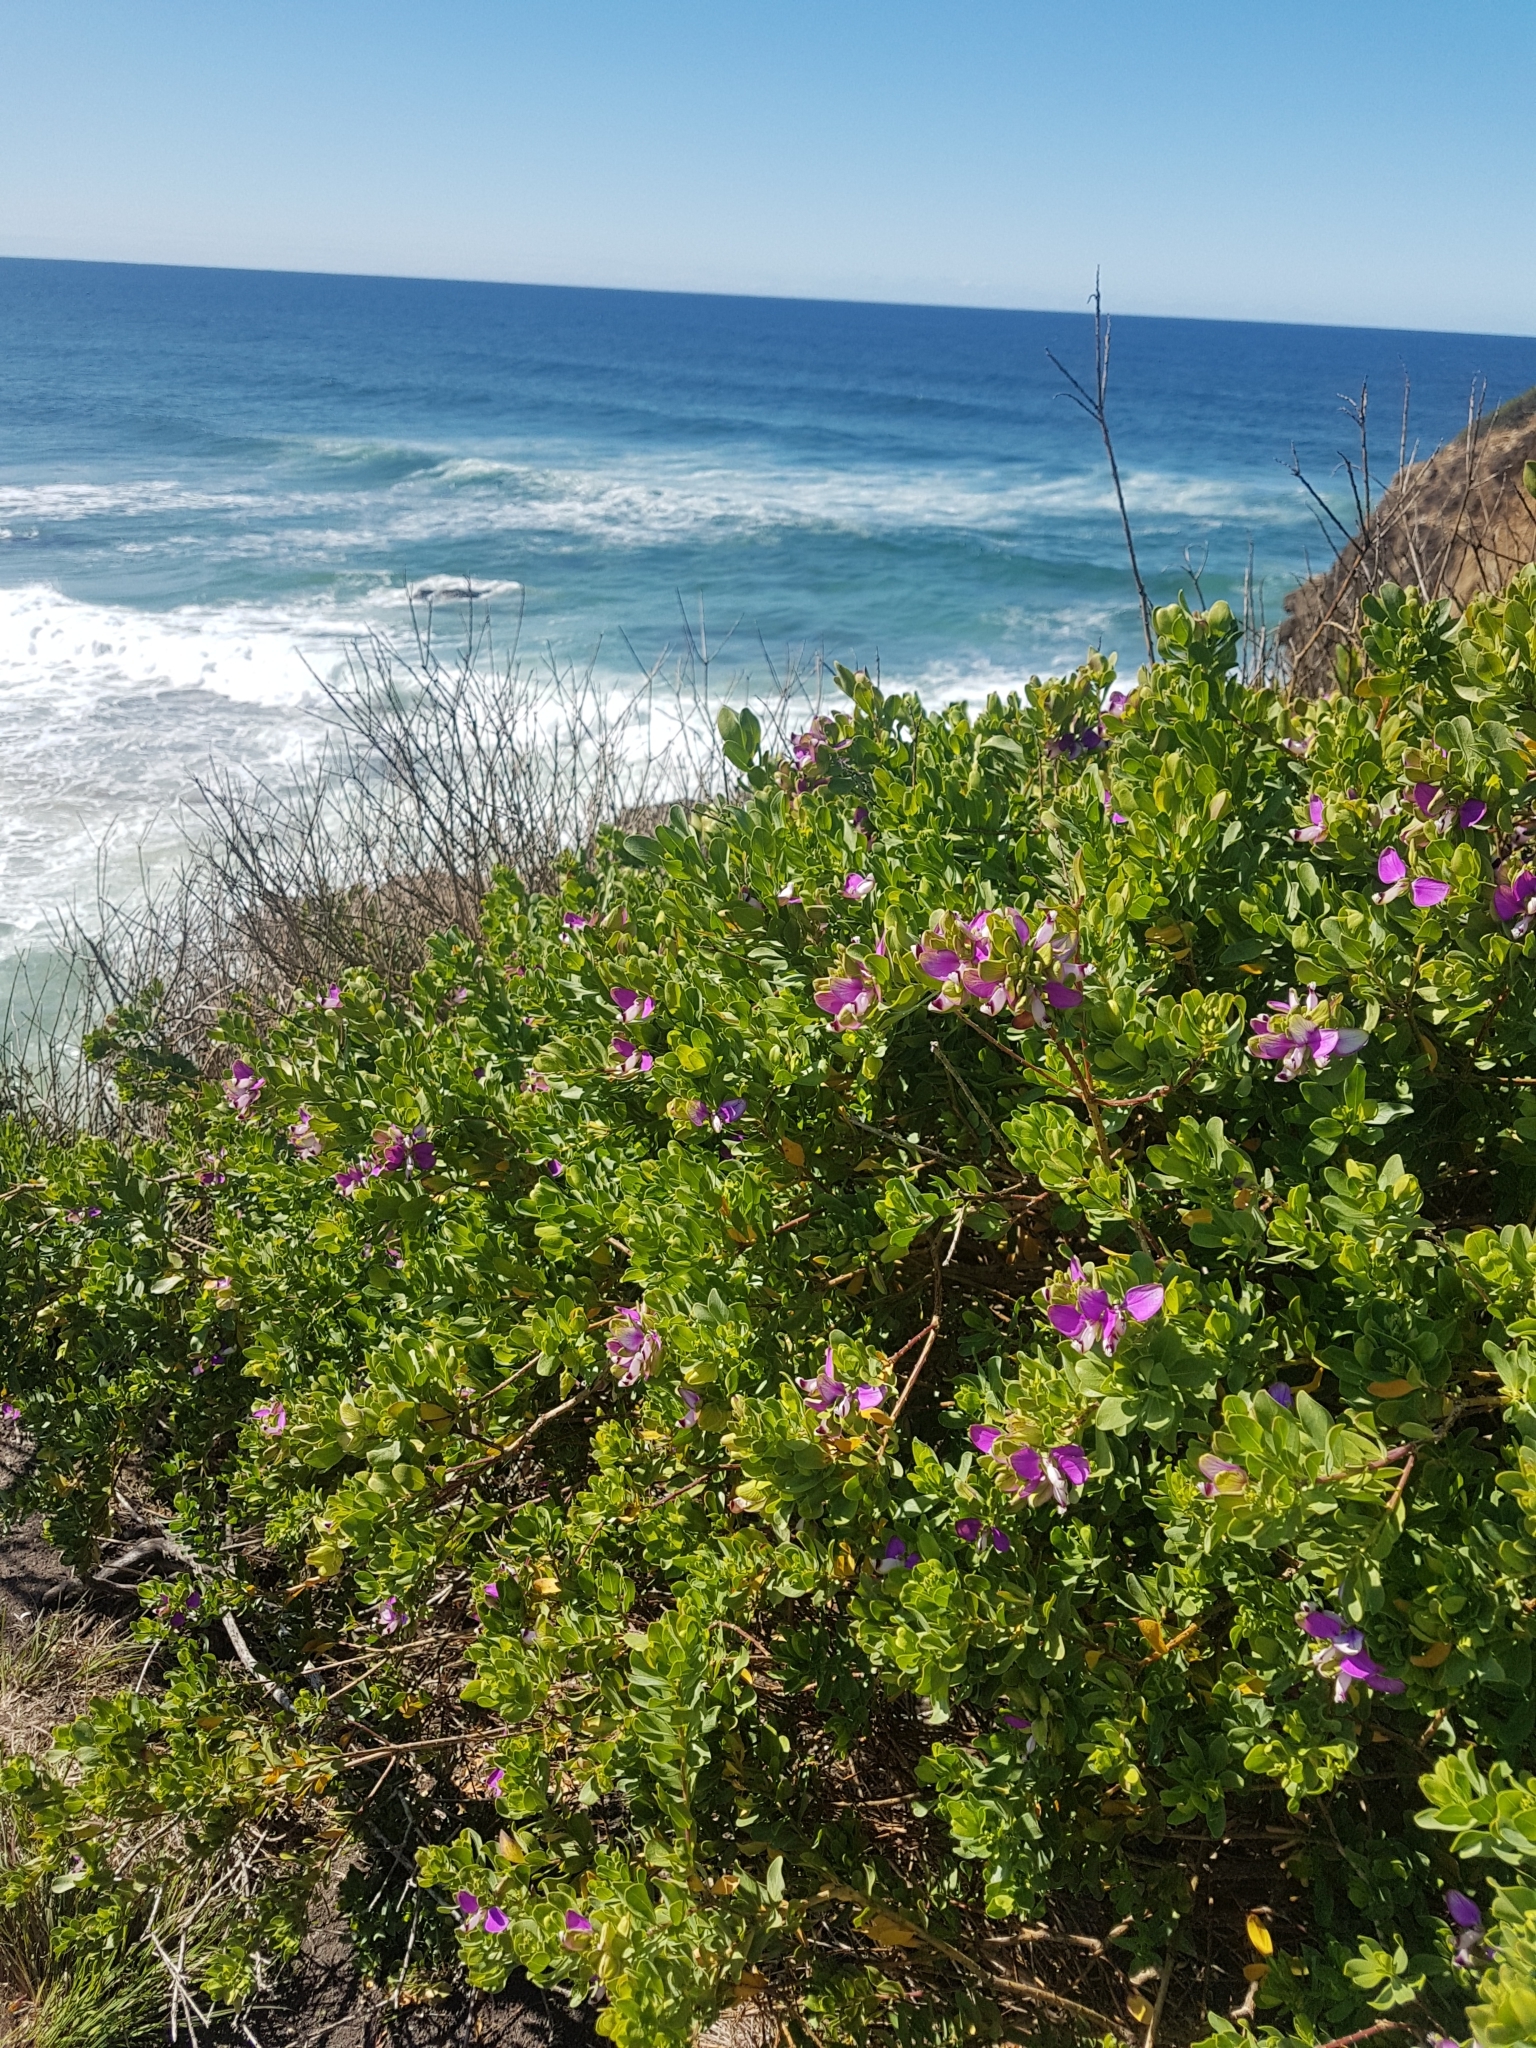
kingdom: Plantae
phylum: Tracheophyta
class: Magnoliopsida
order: Fabales
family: Polygalaceae
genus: Polygala
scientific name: Polygala myrtifolia
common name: Myrtle-leaf milkwort
